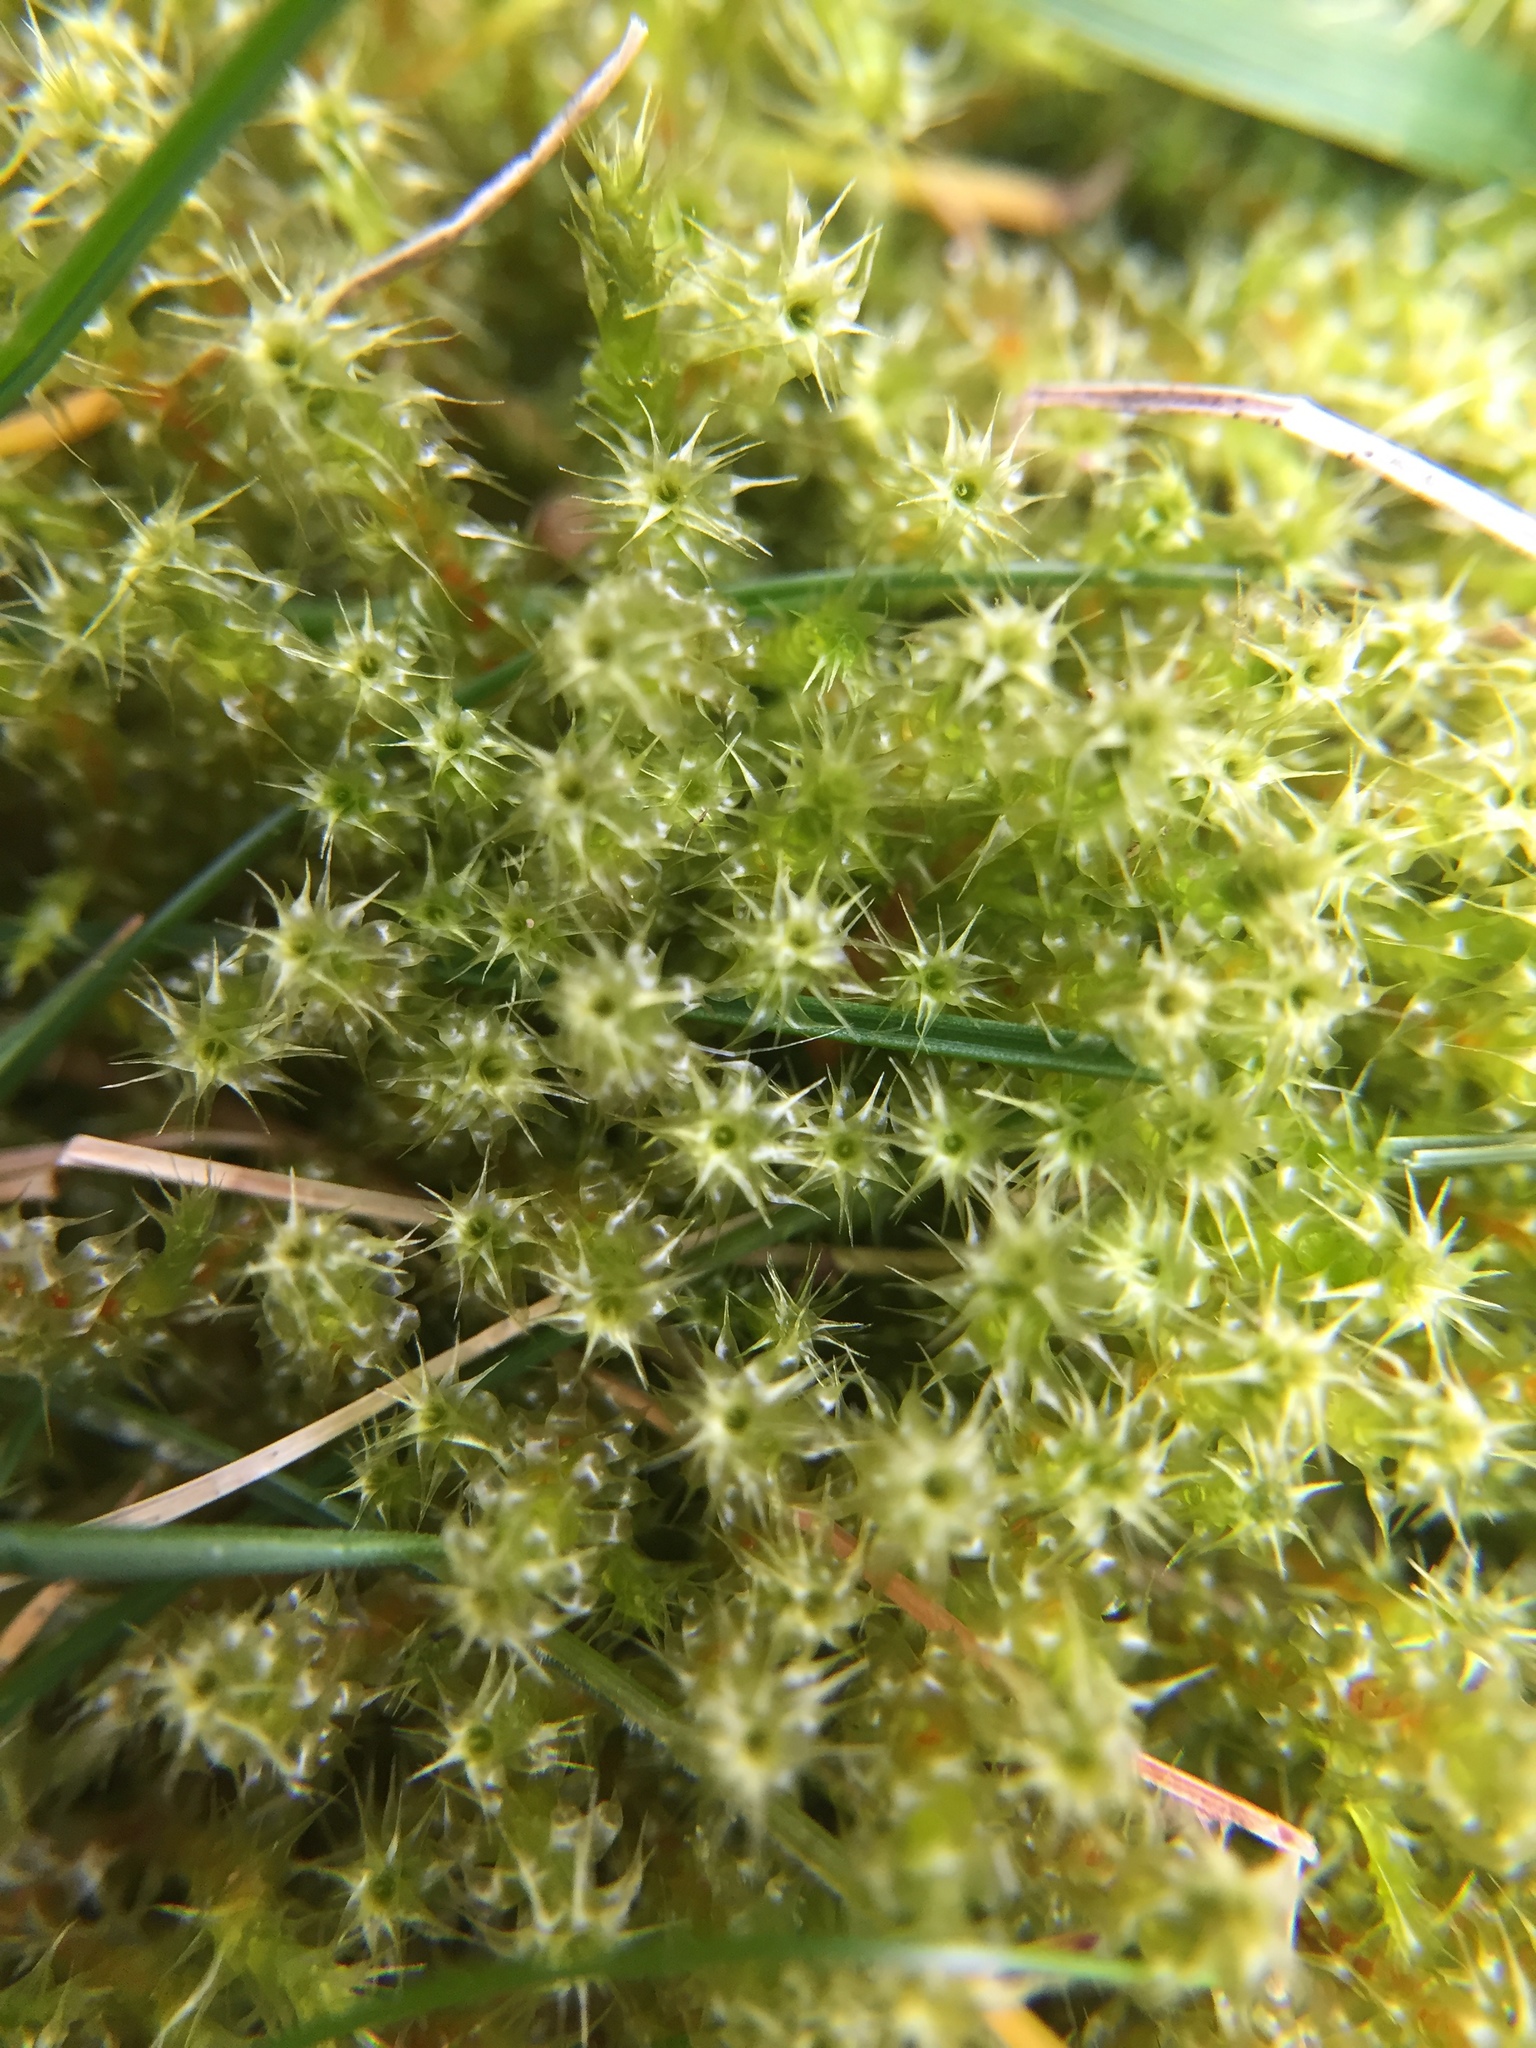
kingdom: Plantae
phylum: Bryophyta
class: Bryopsida
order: Hypnales
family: Hylocomiaceae
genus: Rhytidiadelphus
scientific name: Rhytidiadelphus squarrosus
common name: Springy turf-moss
